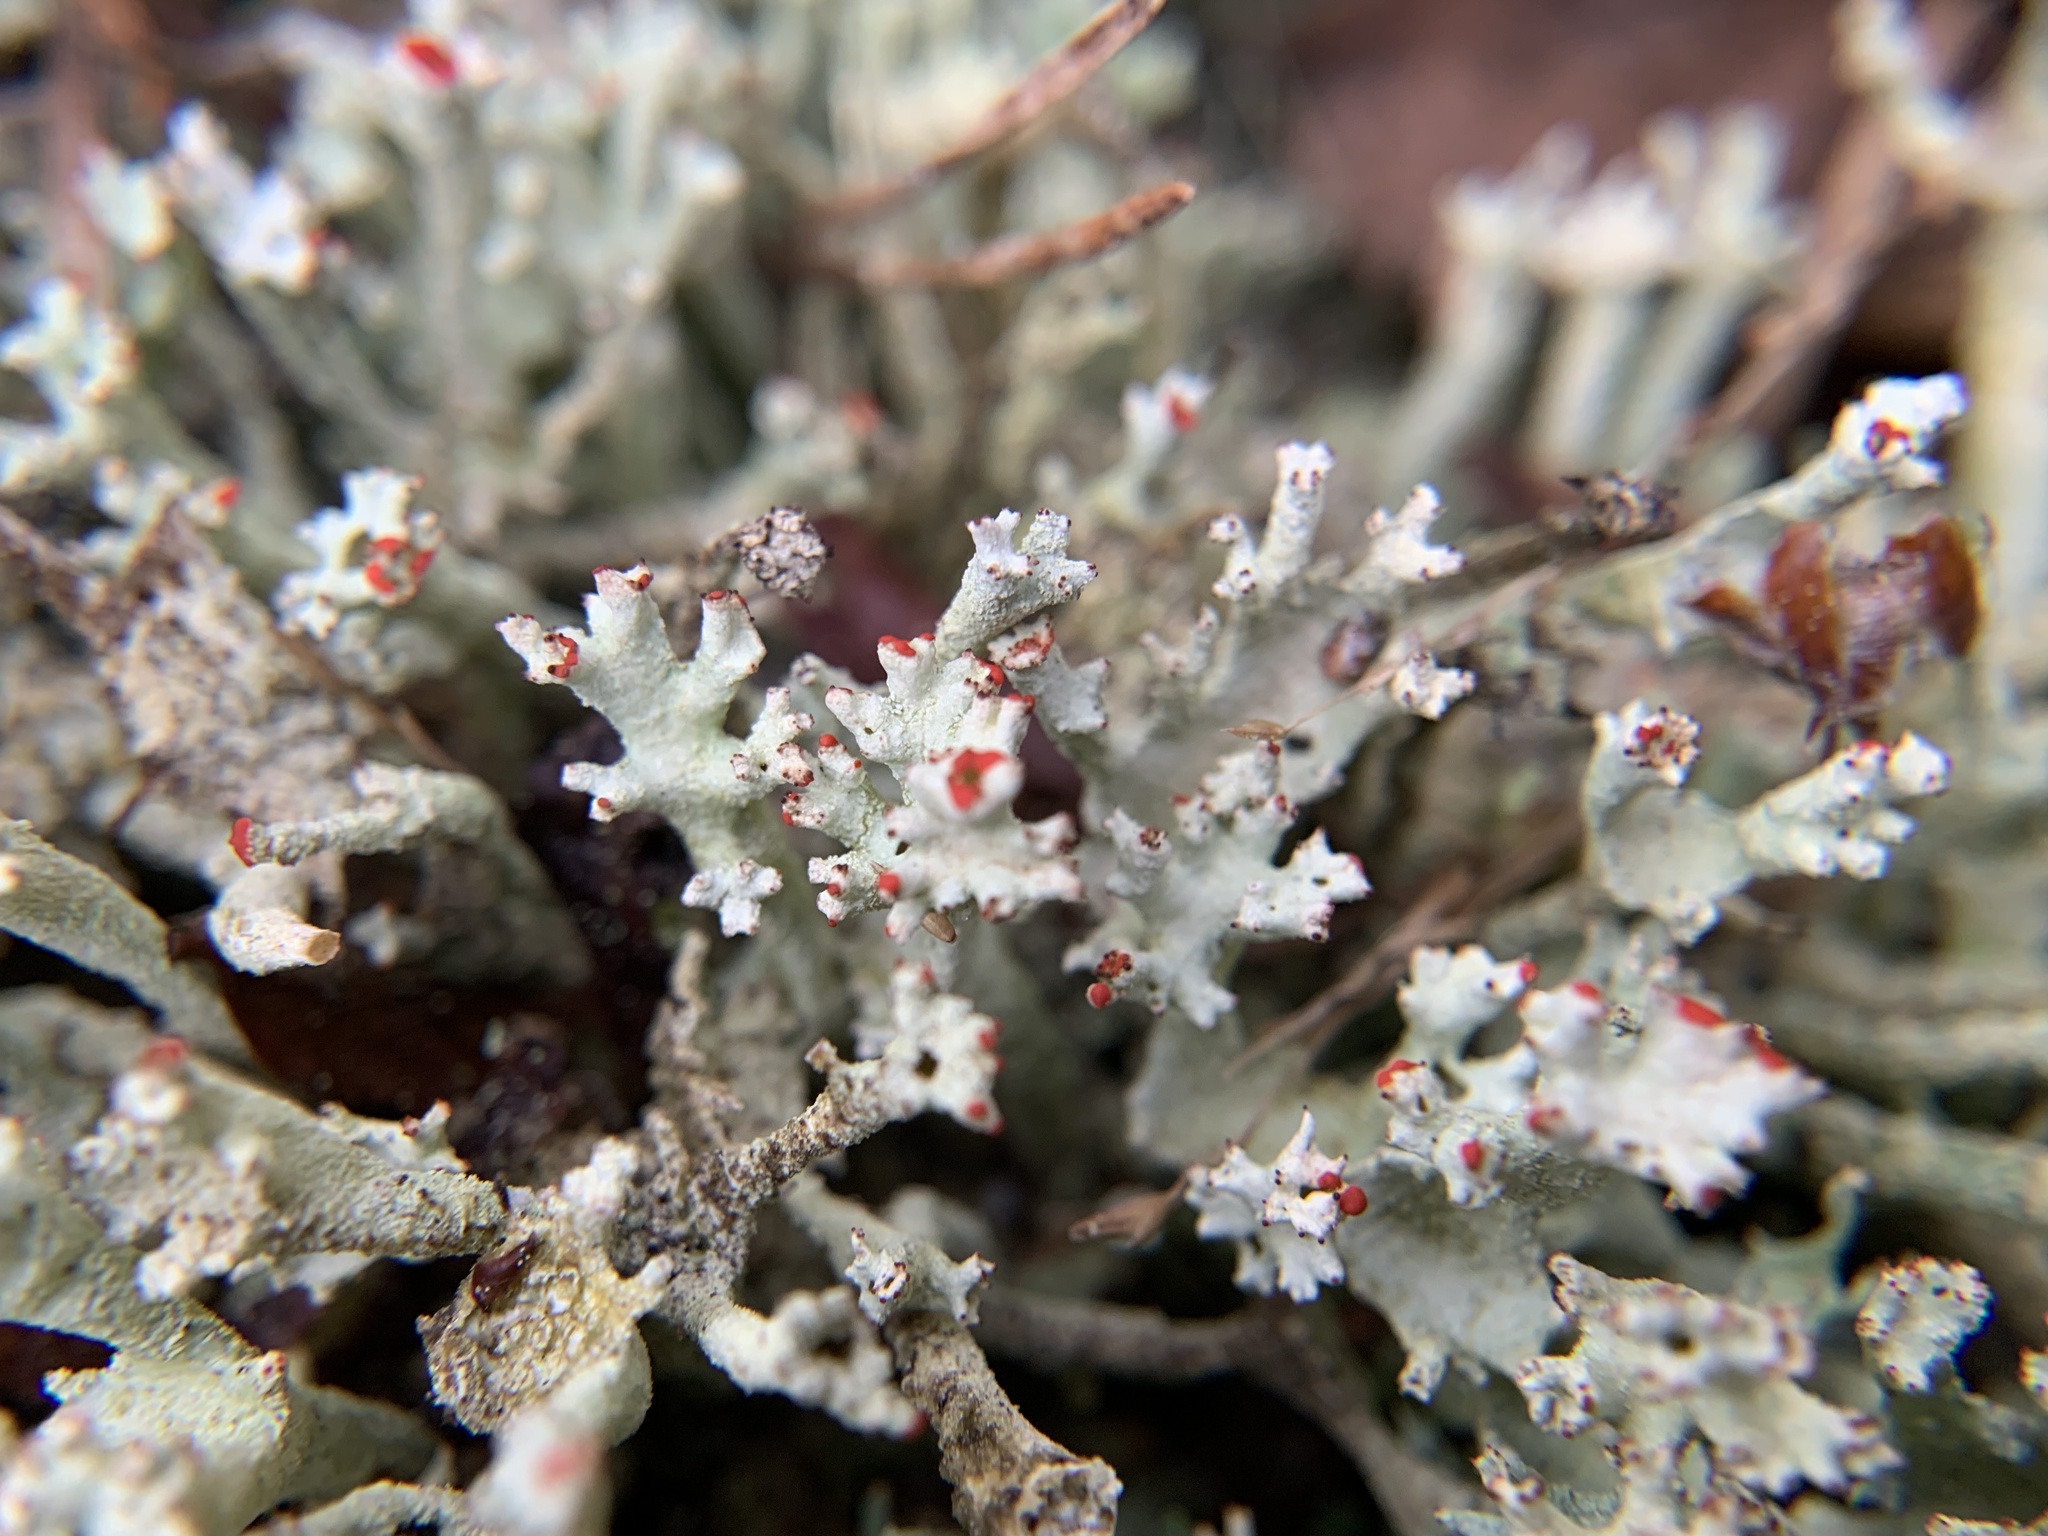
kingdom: Fungi
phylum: Ascomycota
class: Lecanoromycetes
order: Lecanorales
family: Cladoniaceae
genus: Cladonia
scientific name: Cladonia digitata
